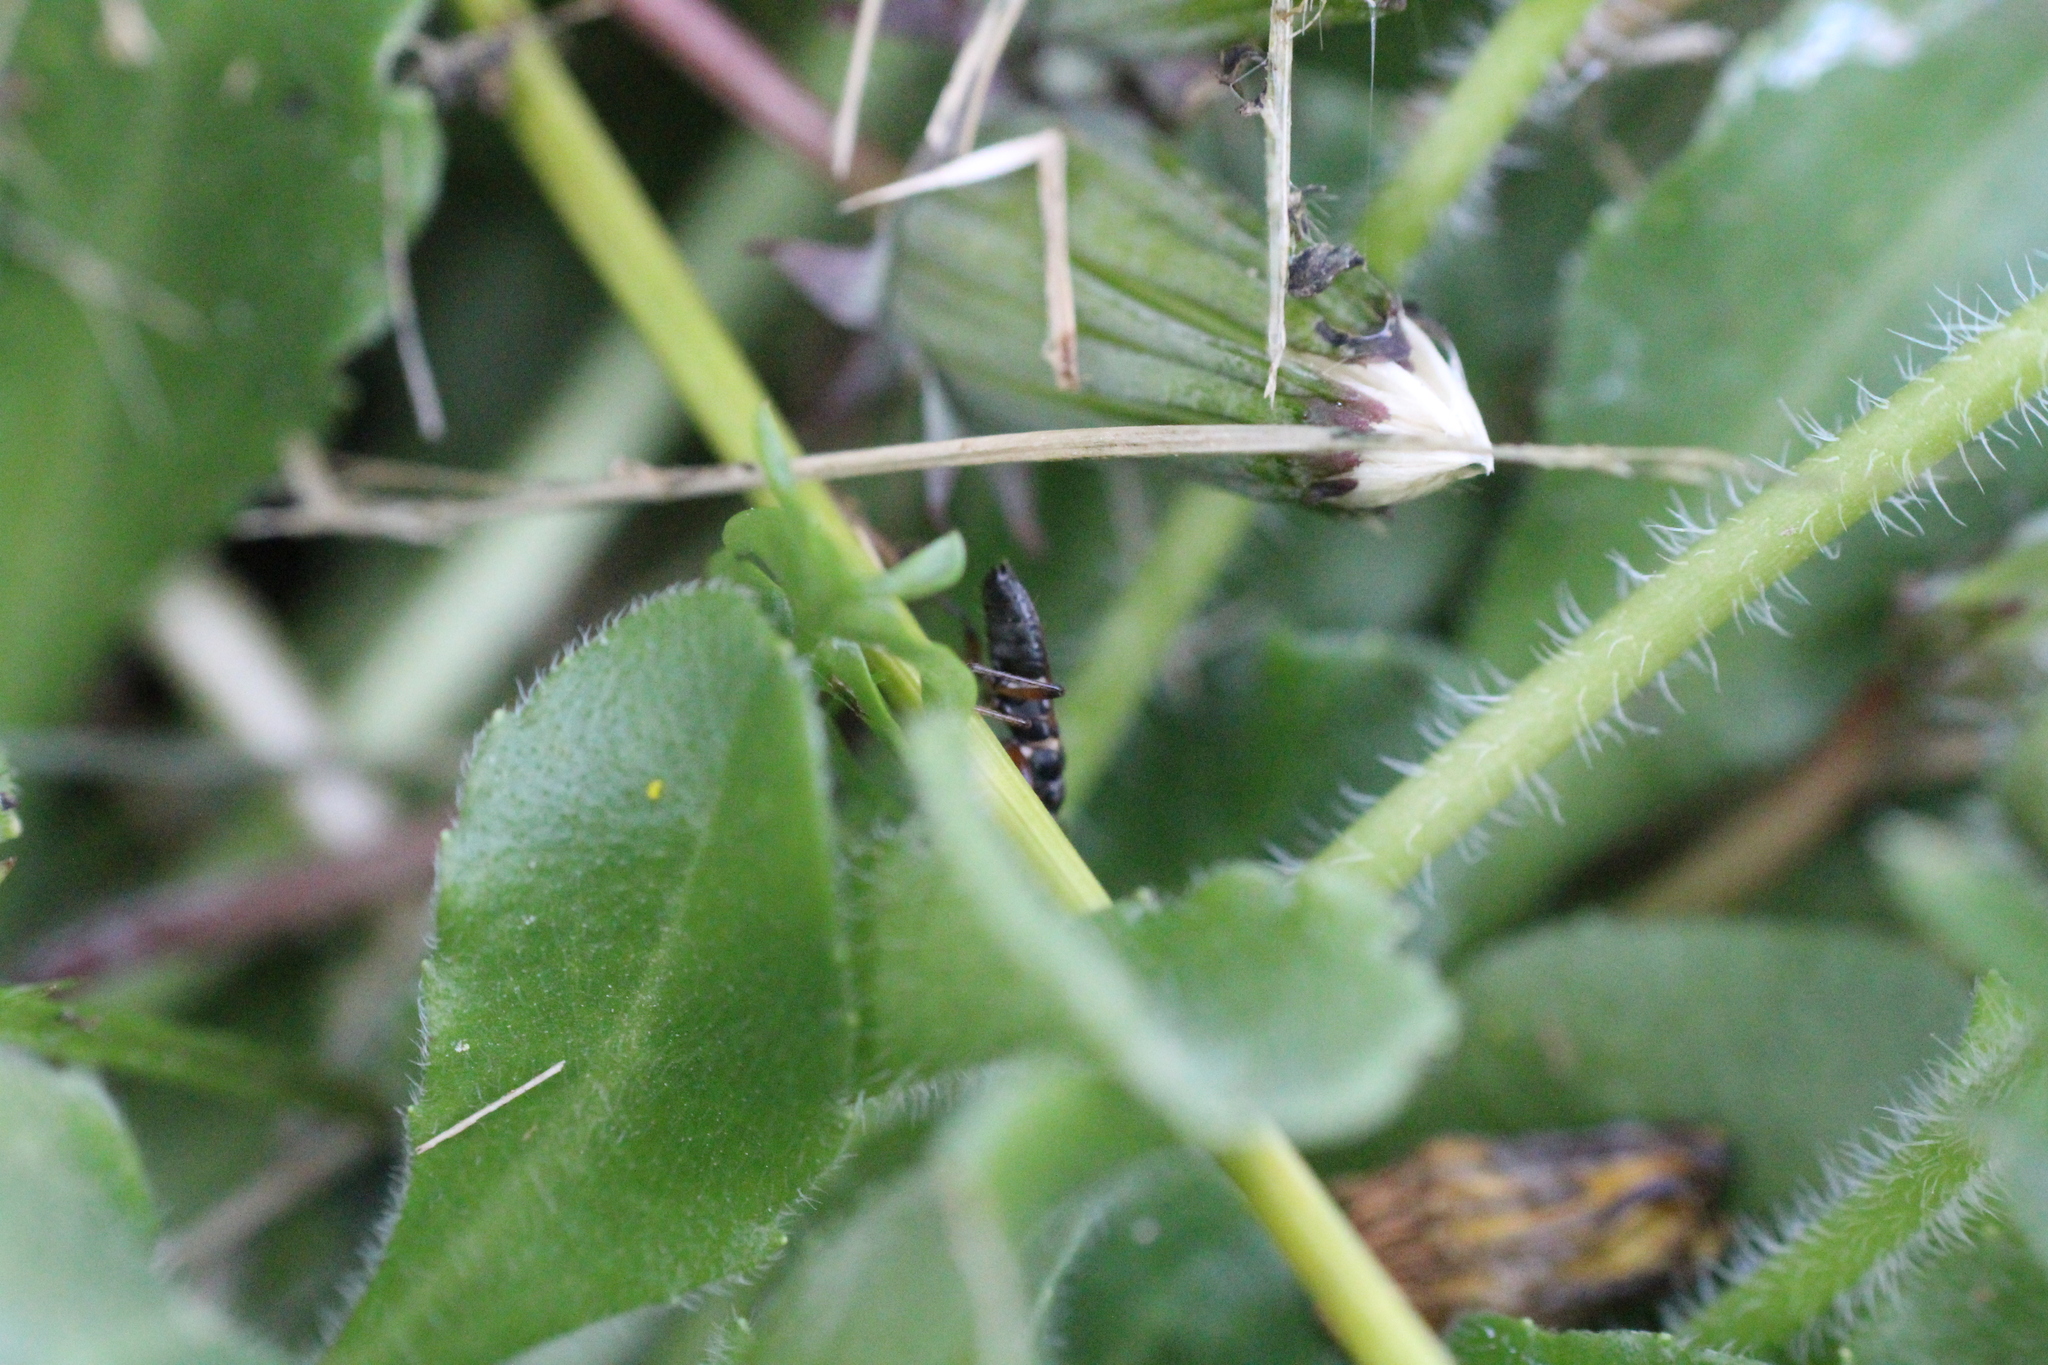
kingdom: Animalia
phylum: Arthropoda
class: Insecta
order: Hemiptera
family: Rhyparochromidae
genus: Raglius
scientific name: Raglius alboacuminatus
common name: Dirt-colored seed bug
